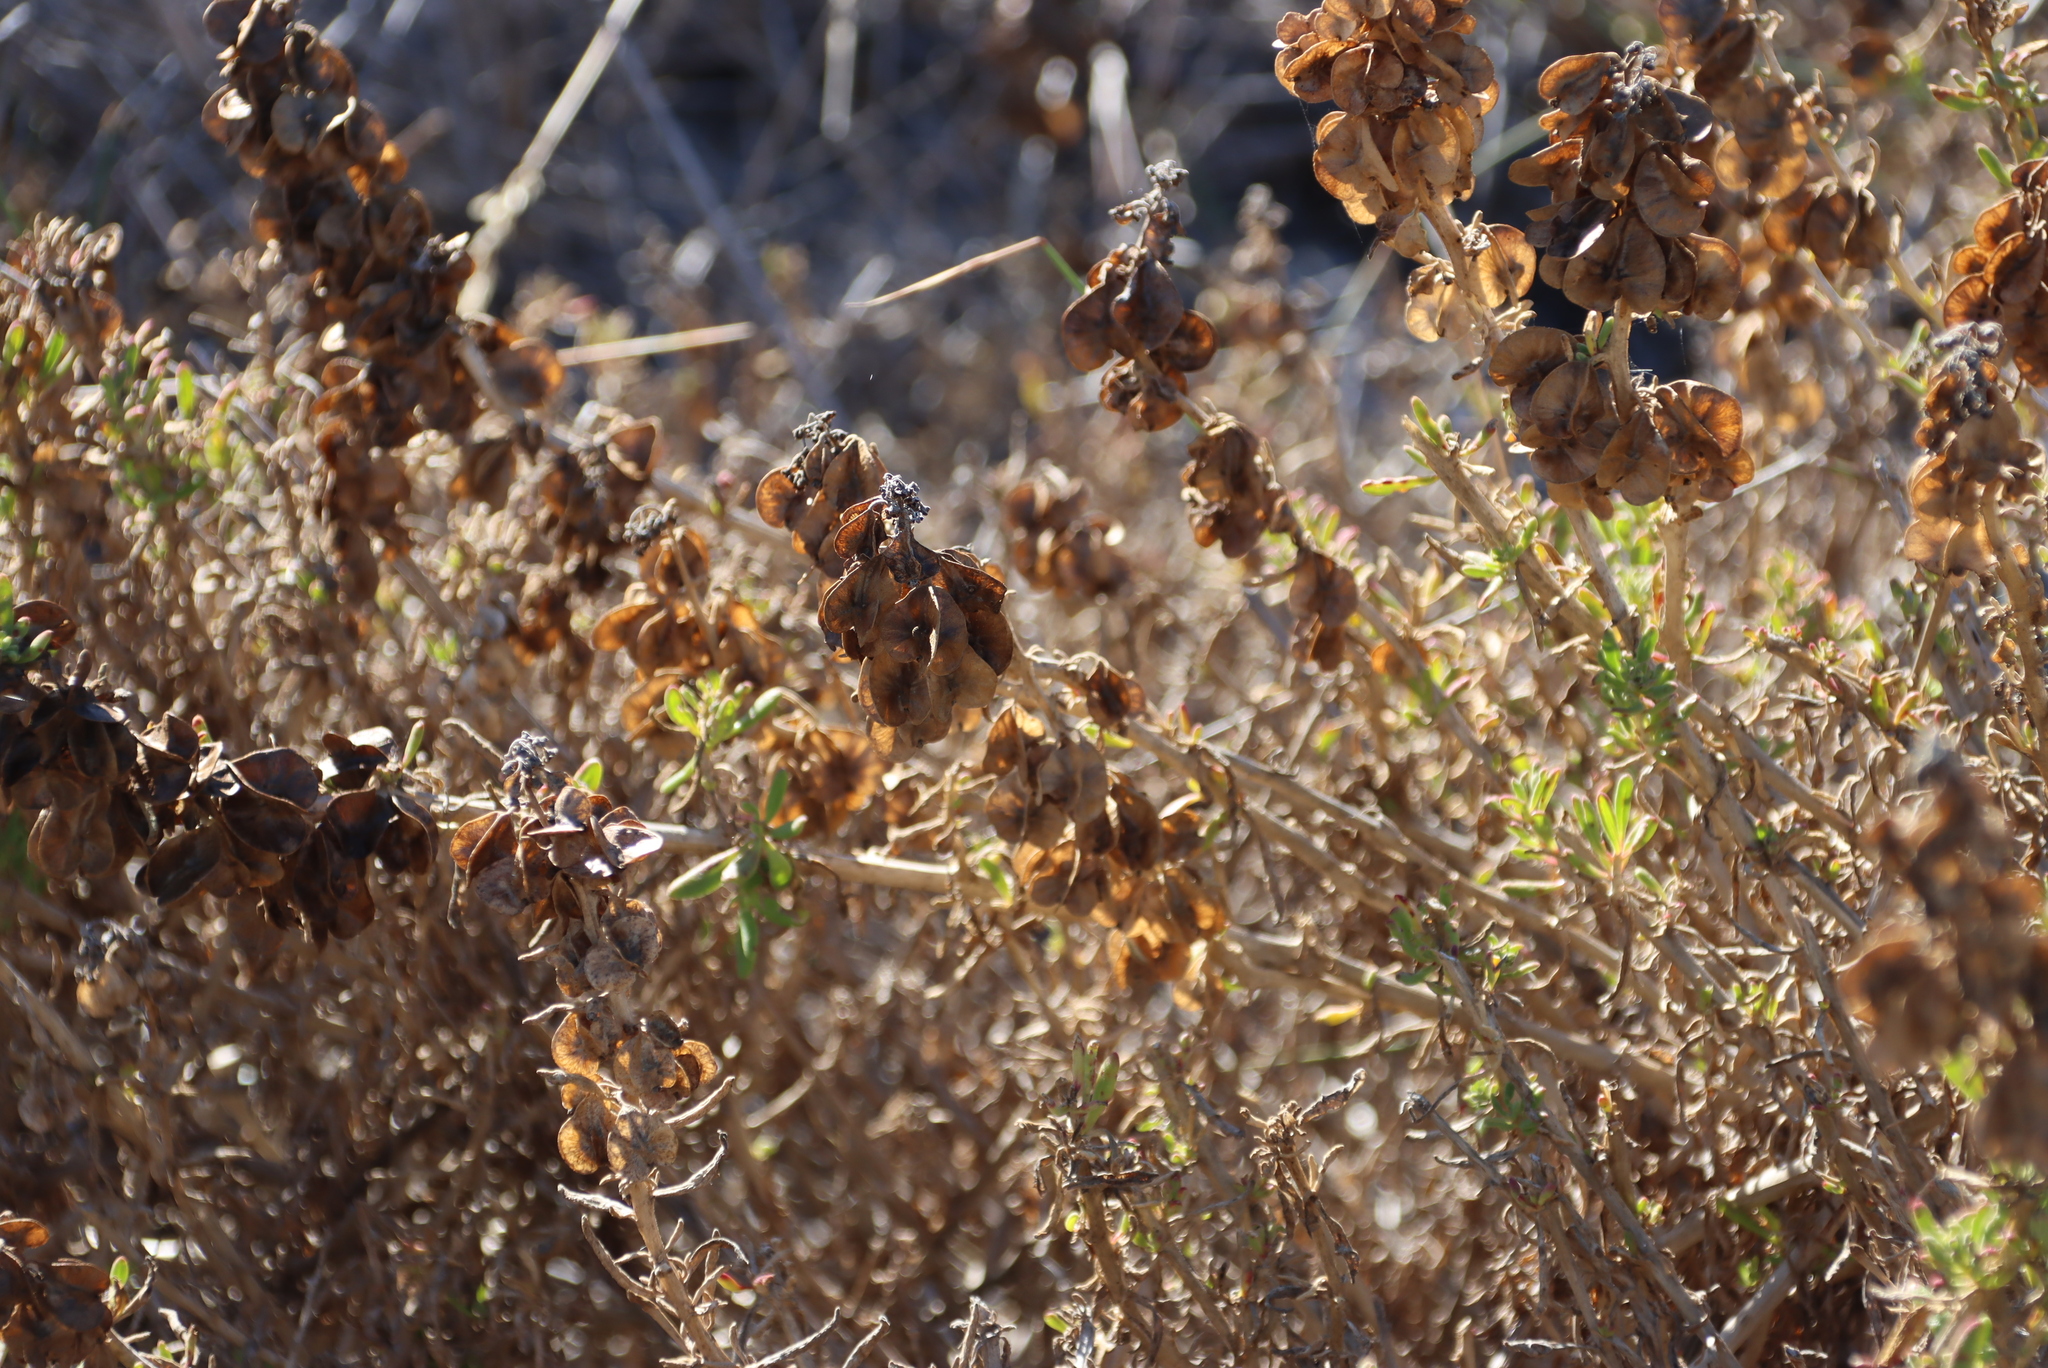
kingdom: Plantae
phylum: Tracheophyta
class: Magnoliopsida
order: Caryophyllales
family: Aizoaceae
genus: Tetragonia
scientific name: Tetragonia fruticosa
